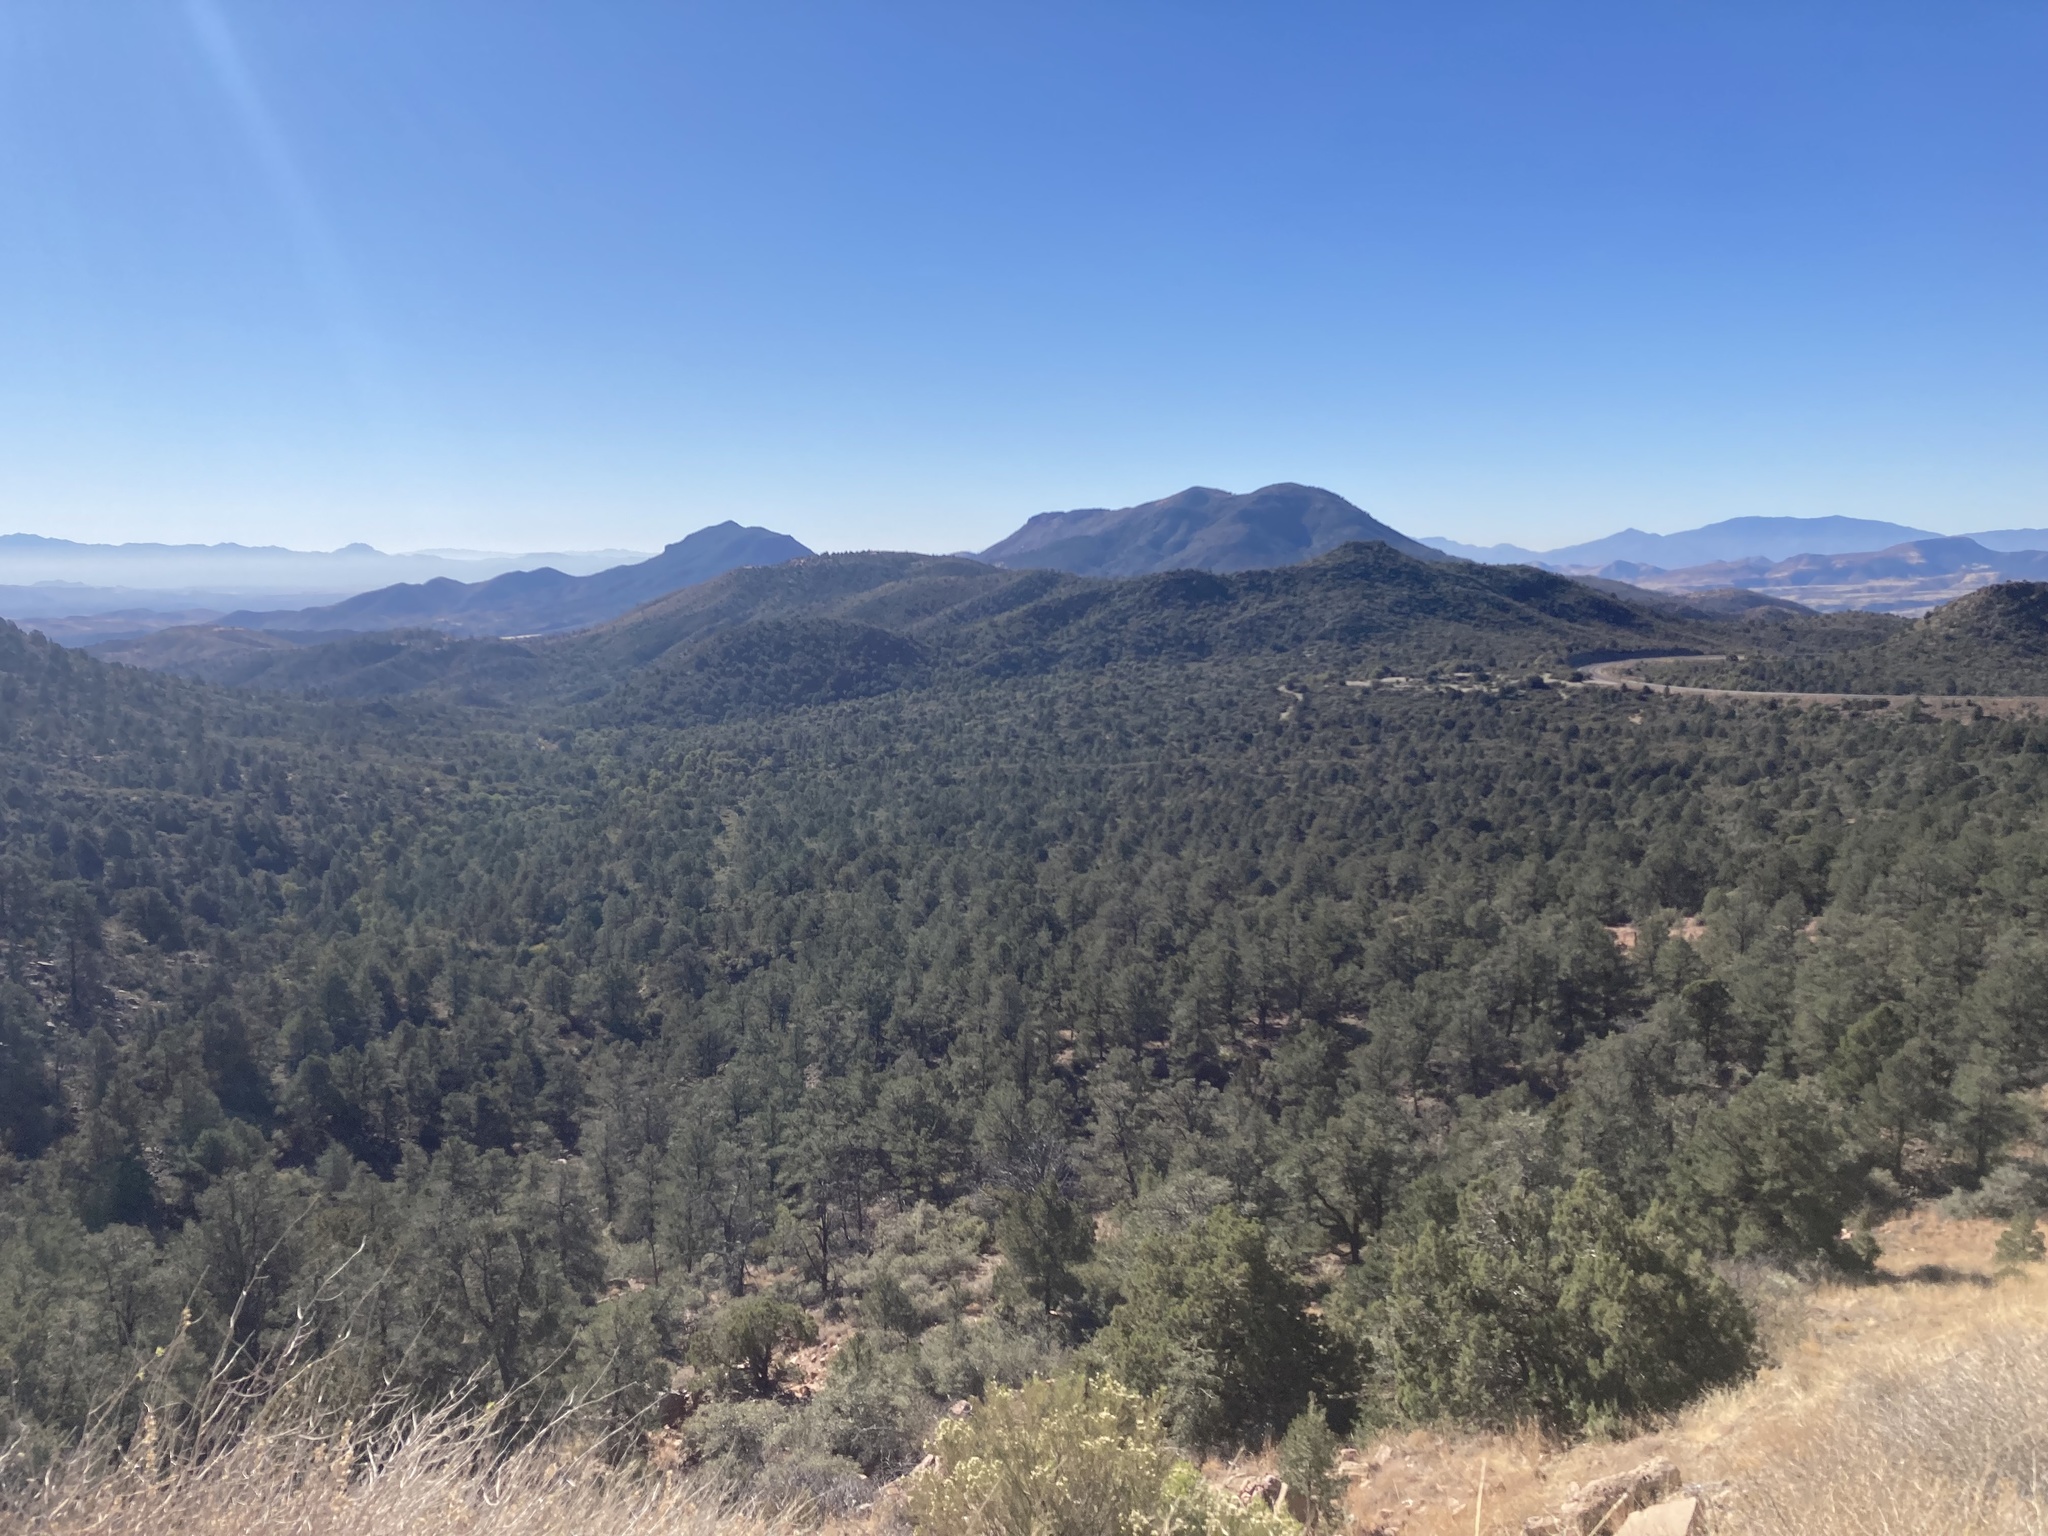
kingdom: Plantae
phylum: Tracheophyta
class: Pinopsida
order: Pinales
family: Pinaceae
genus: Pinus
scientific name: Pinus monophylla
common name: One-leaved nut pine
